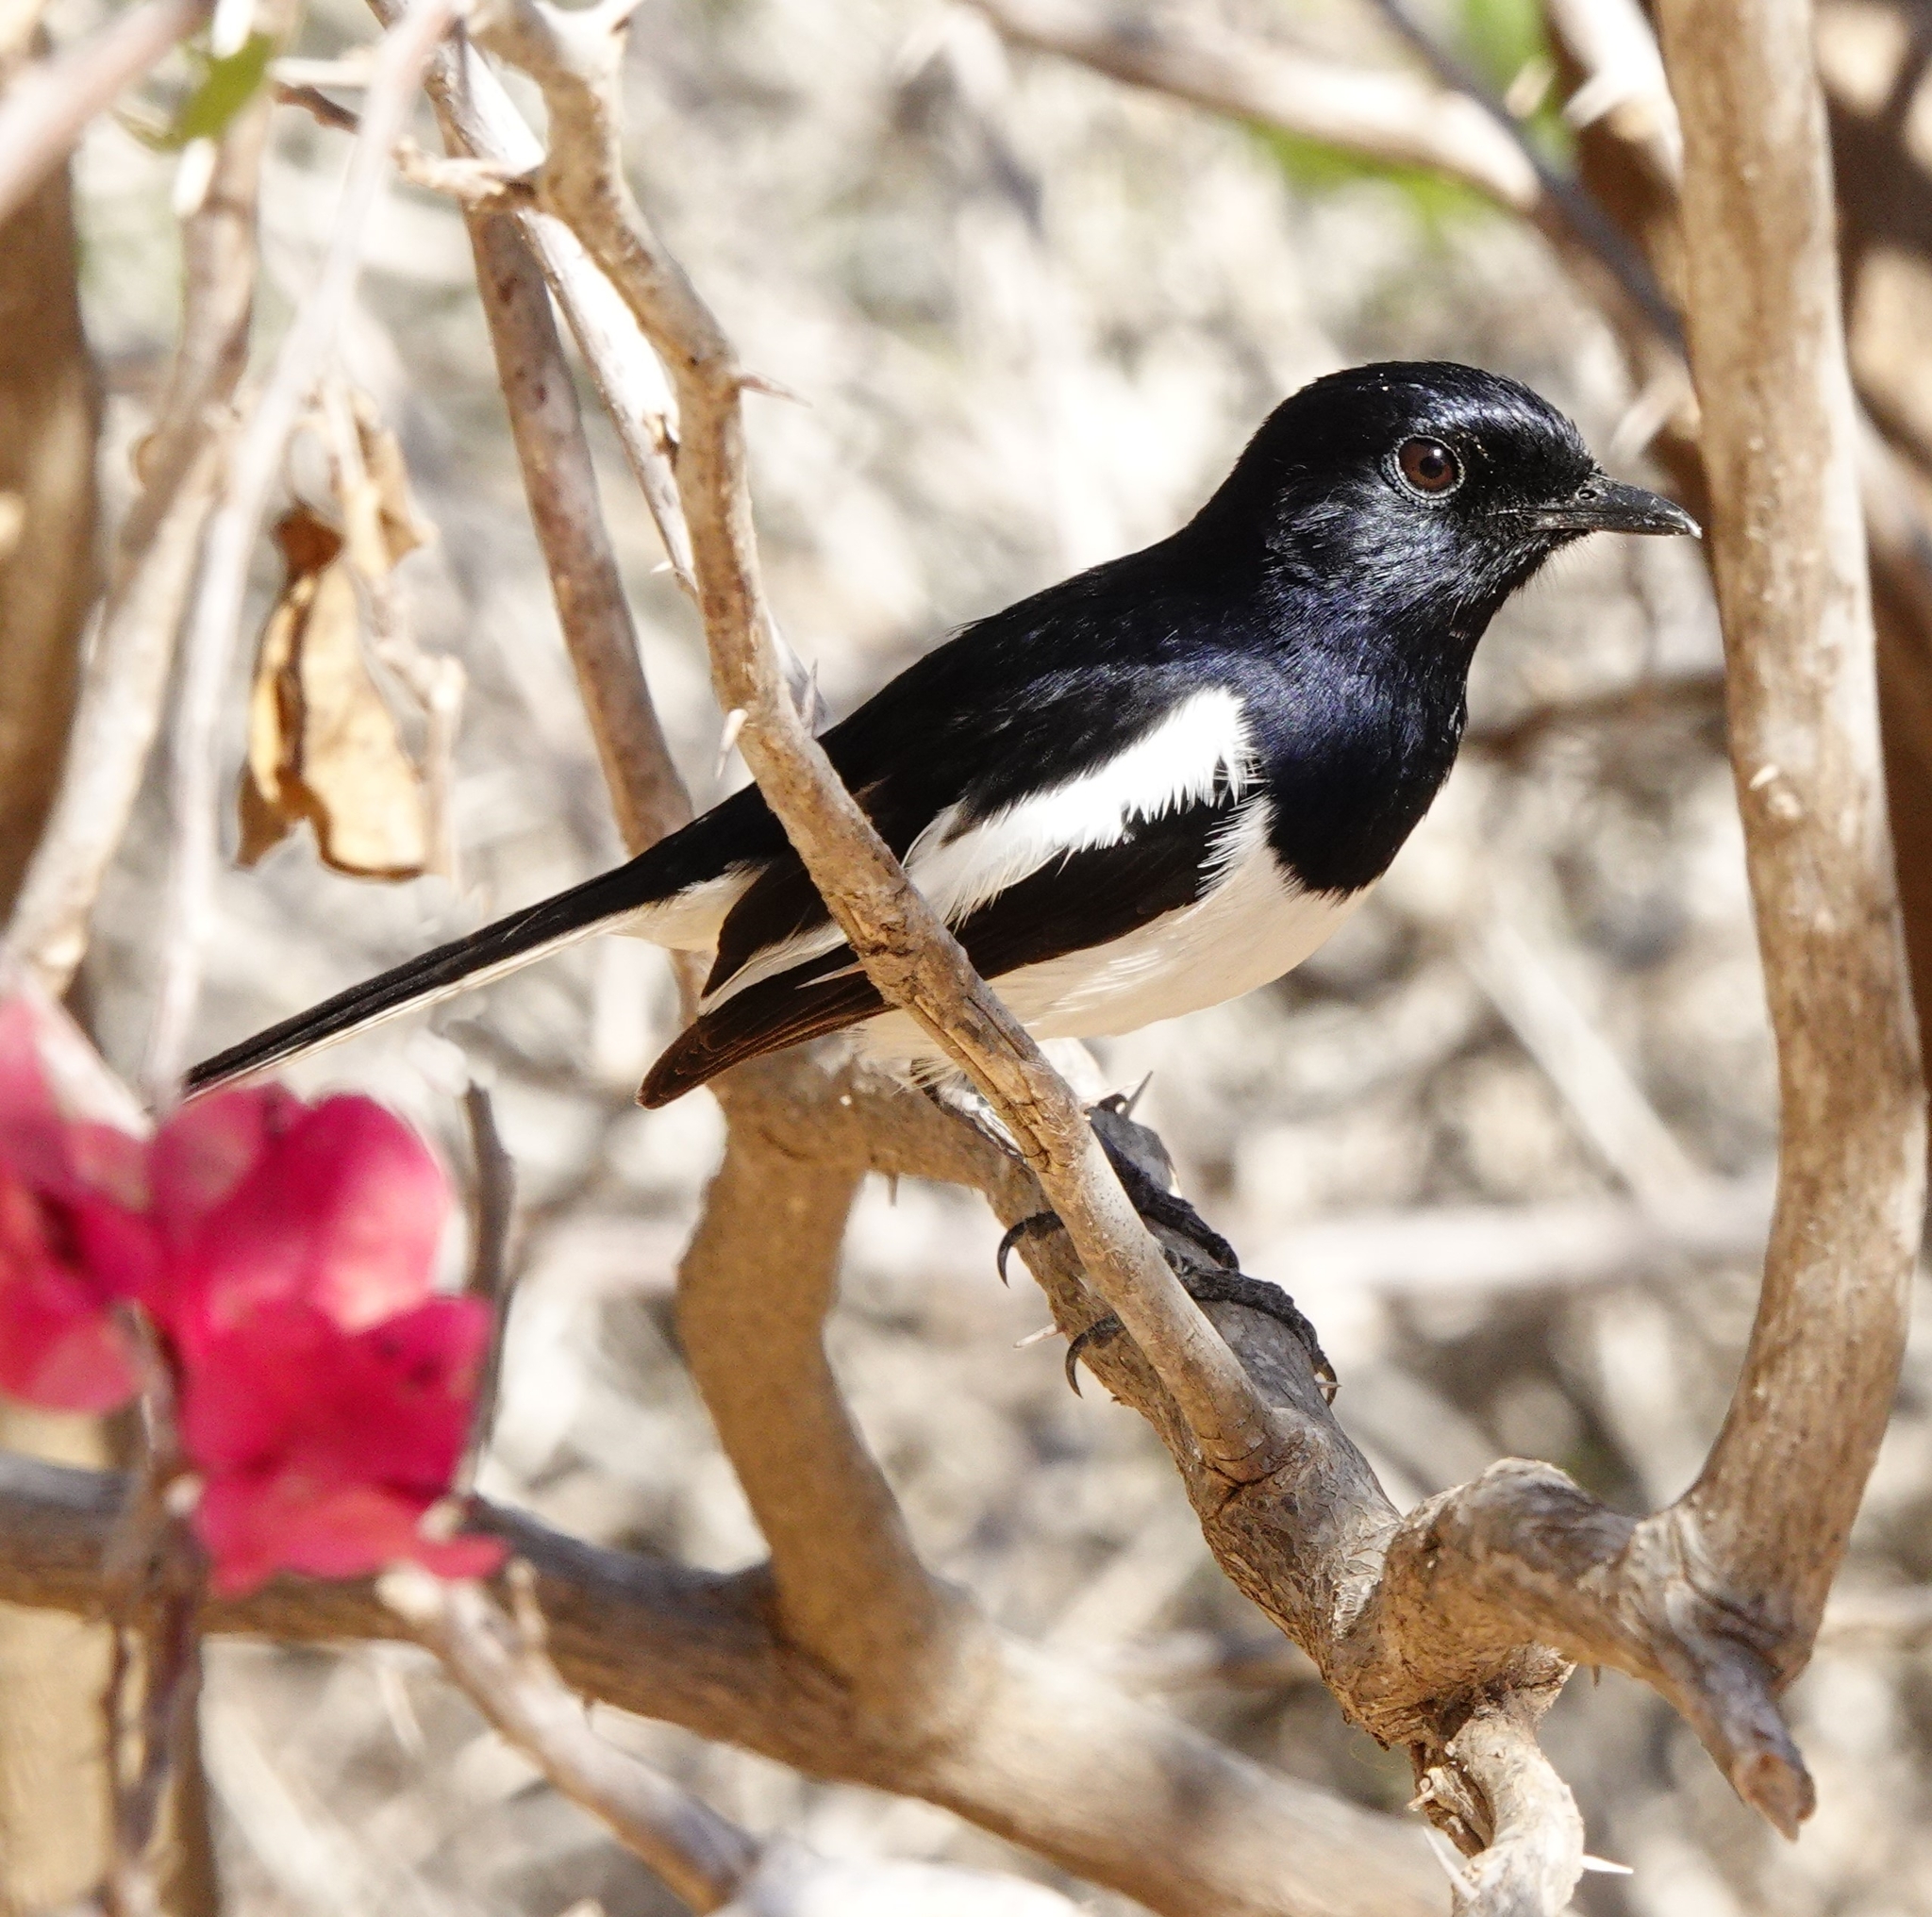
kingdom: Animalia
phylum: Chordata
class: Aves
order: Passeriformes
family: Muscicapidae
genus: Copsychus
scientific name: Copsychus albospecularis
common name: Madagascar magpie-robin
